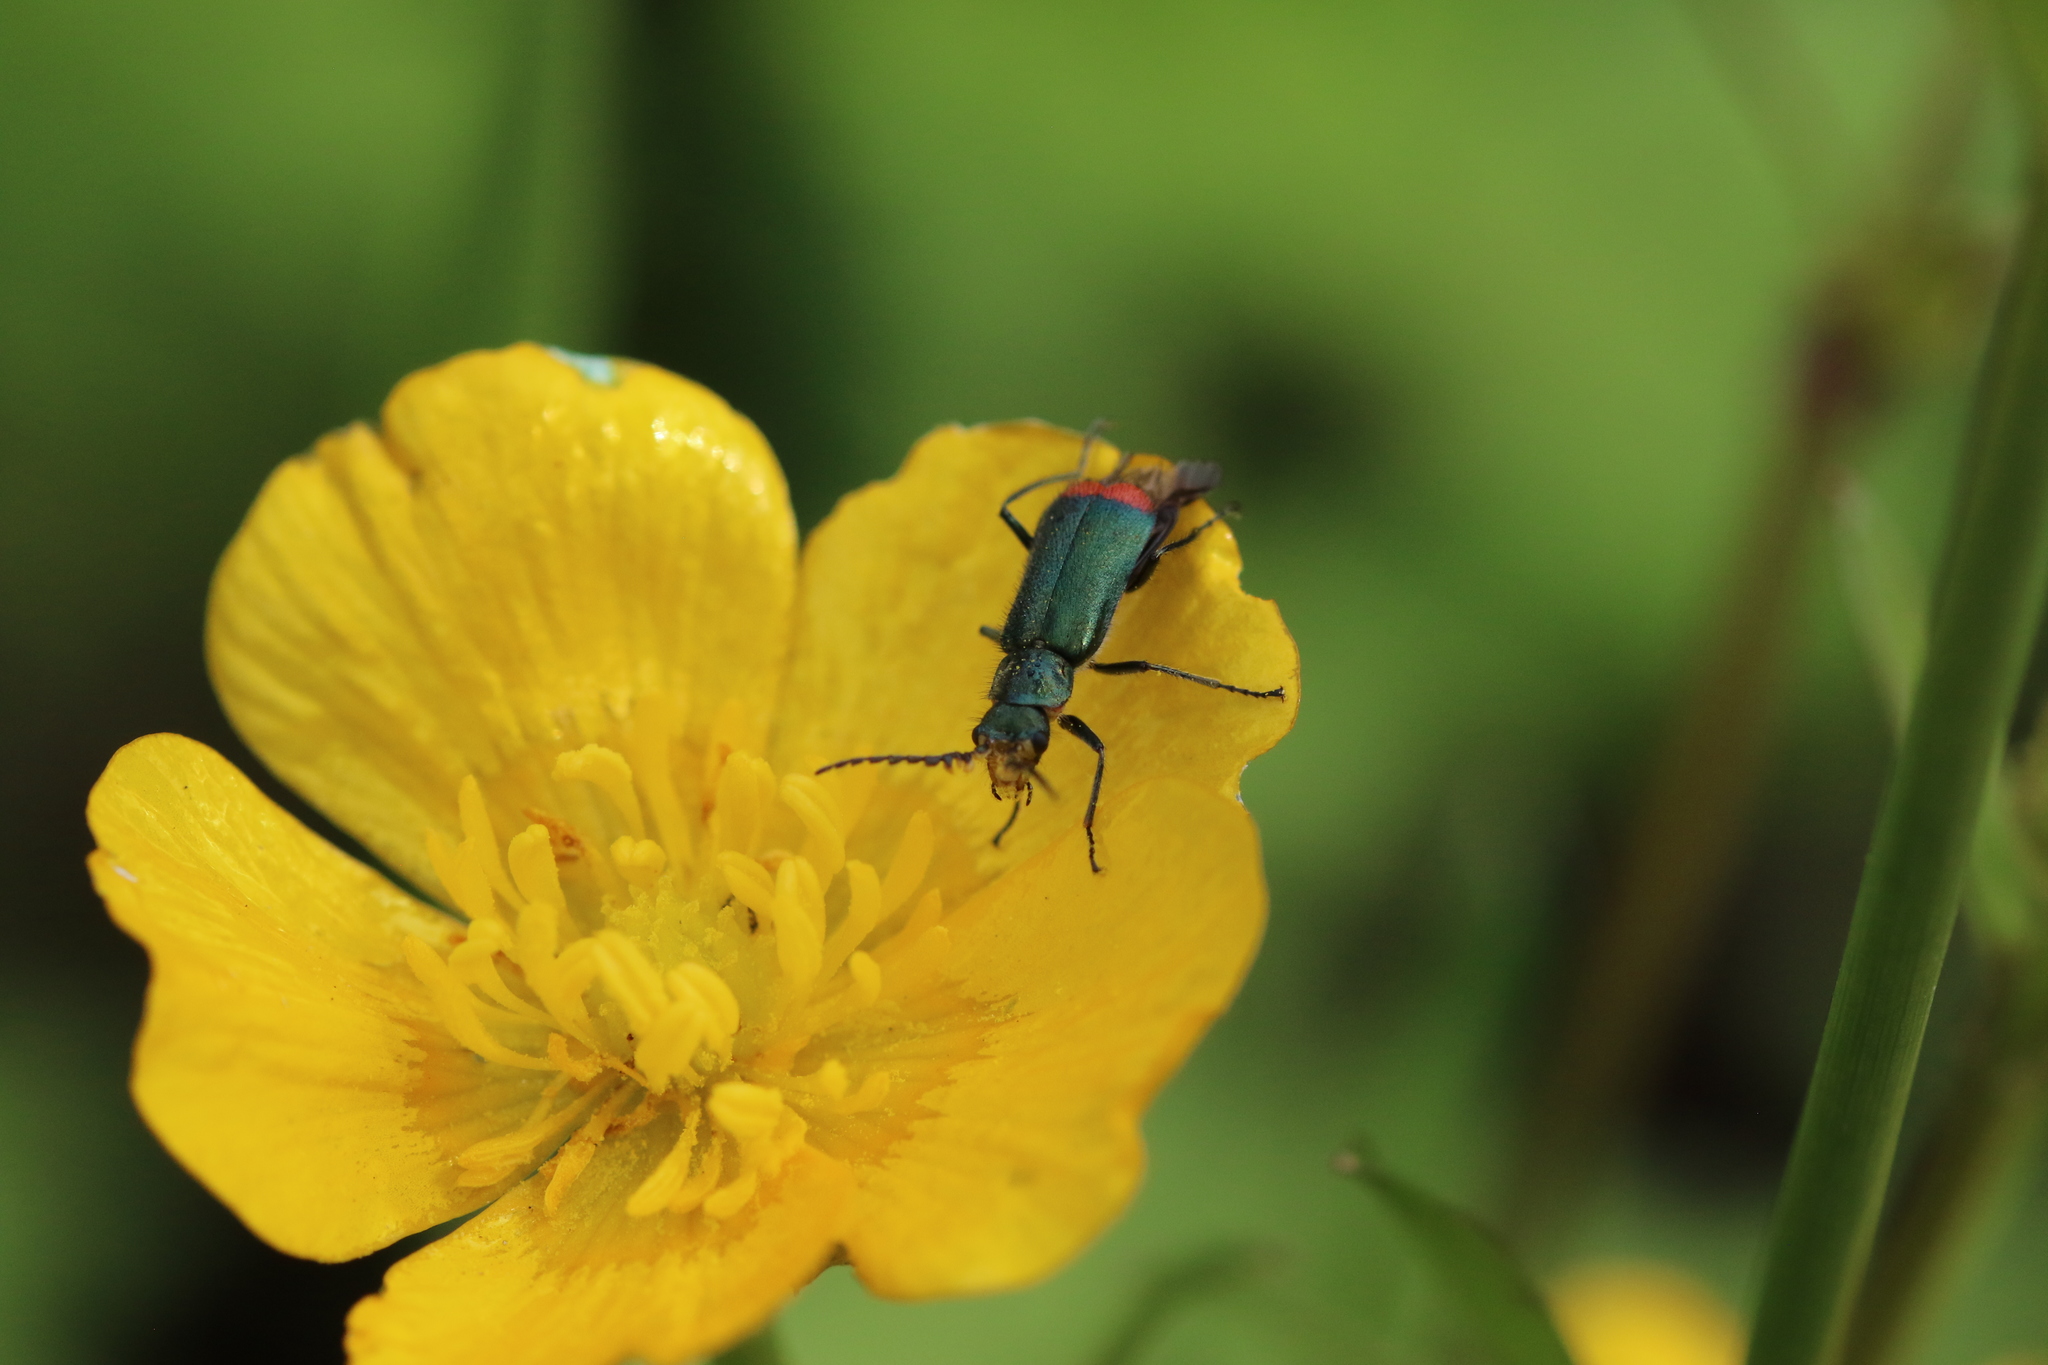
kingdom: Animalia
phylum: Arthropoda
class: Insecta
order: Coleoptera
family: Melyridae
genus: Malachius
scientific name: Malachius bipustulatus
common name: Malachite beetle
